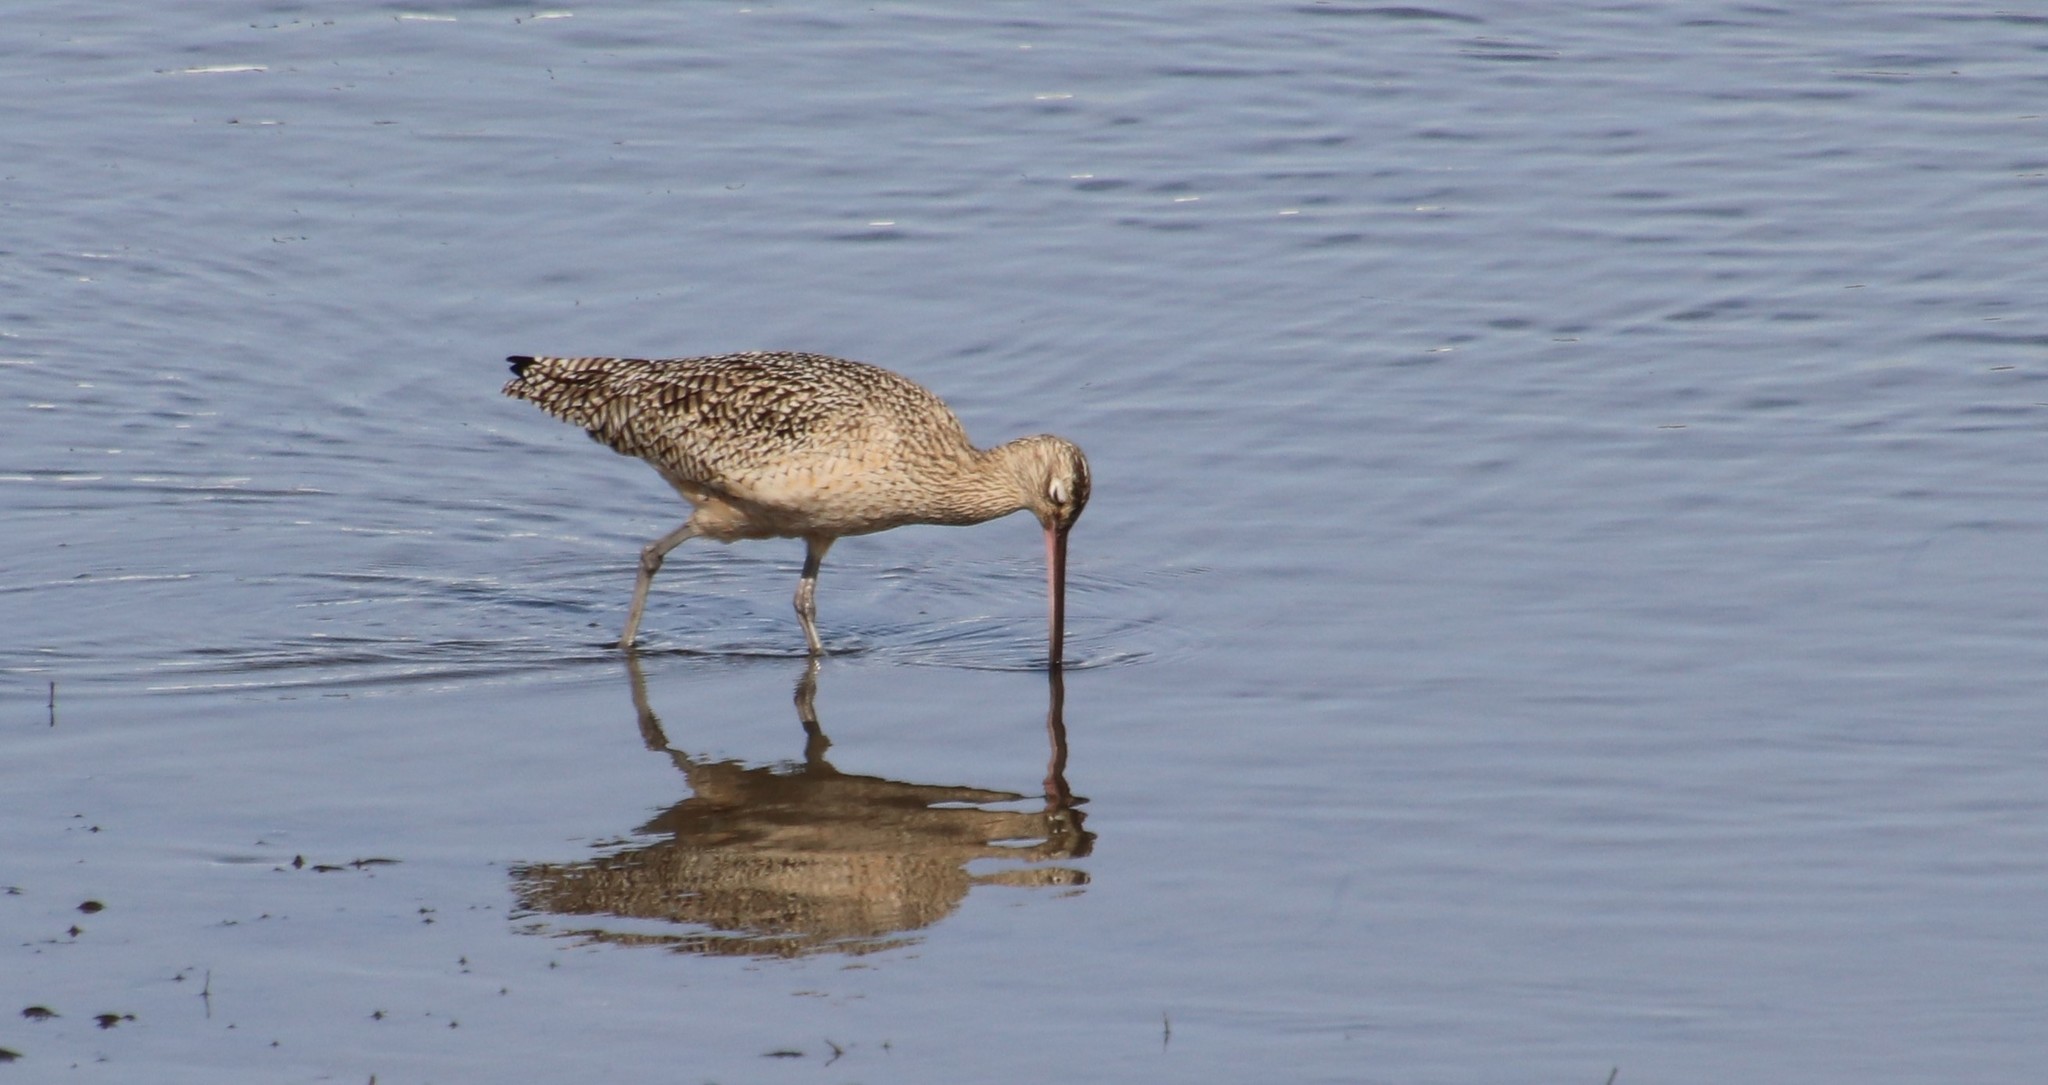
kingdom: Animalia
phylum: Chordata
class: Aves
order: Charadriiformes
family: Scolopacidae
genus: Numenius
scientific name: Numenius americanus
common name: Long-billed curlew
